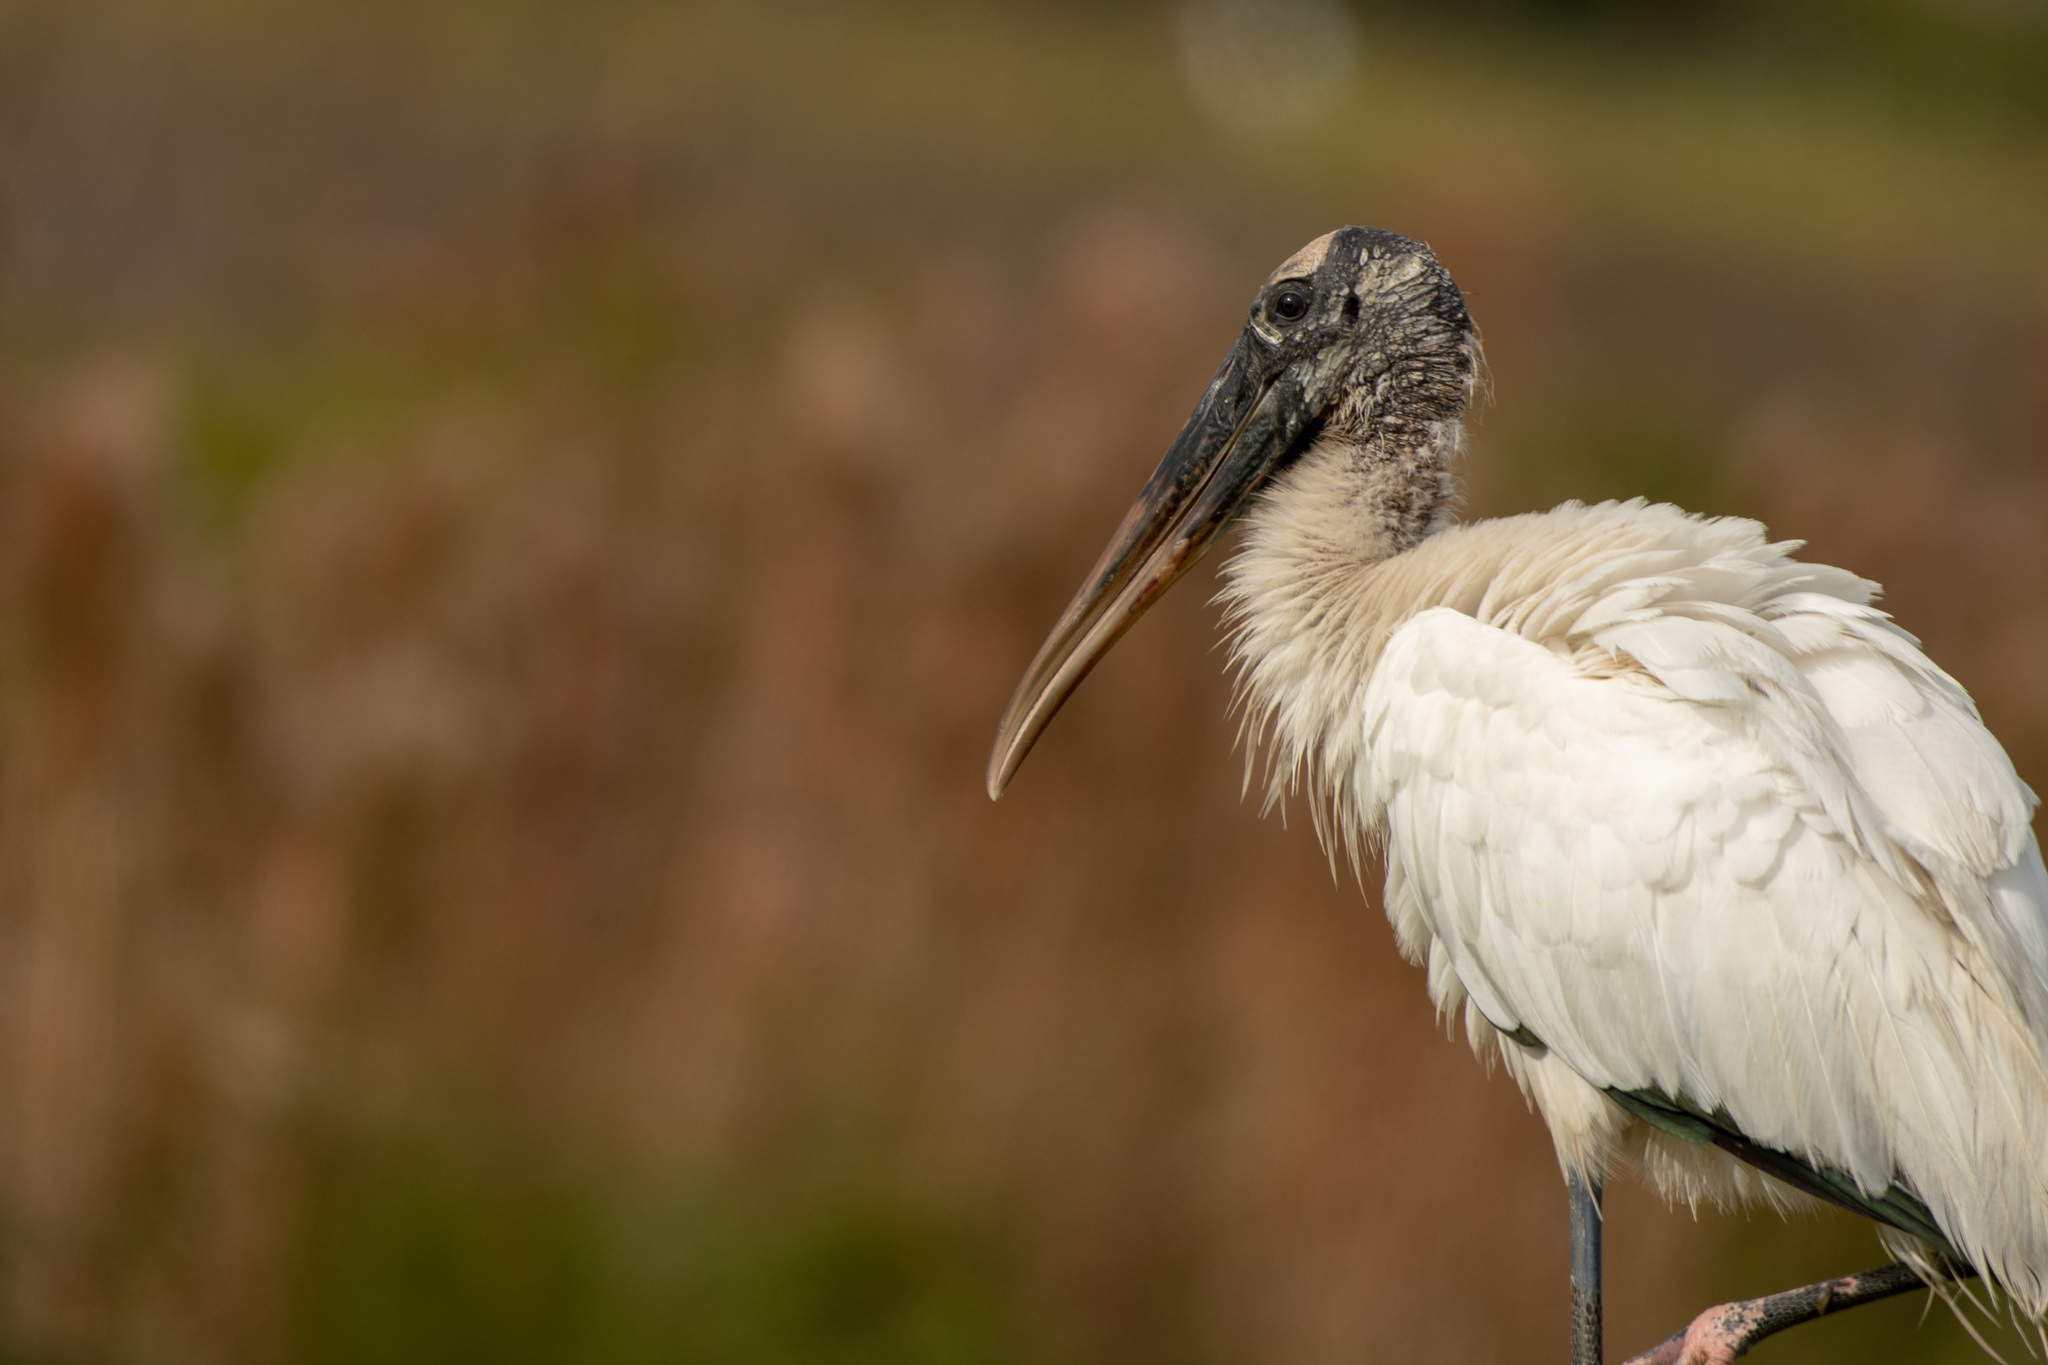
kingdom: Animalia
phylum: Chordata
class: Aves
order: Ciconiiformes
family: Ciconiidae
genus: Mycteria
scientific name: Mycteria americana
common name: Wood stork
